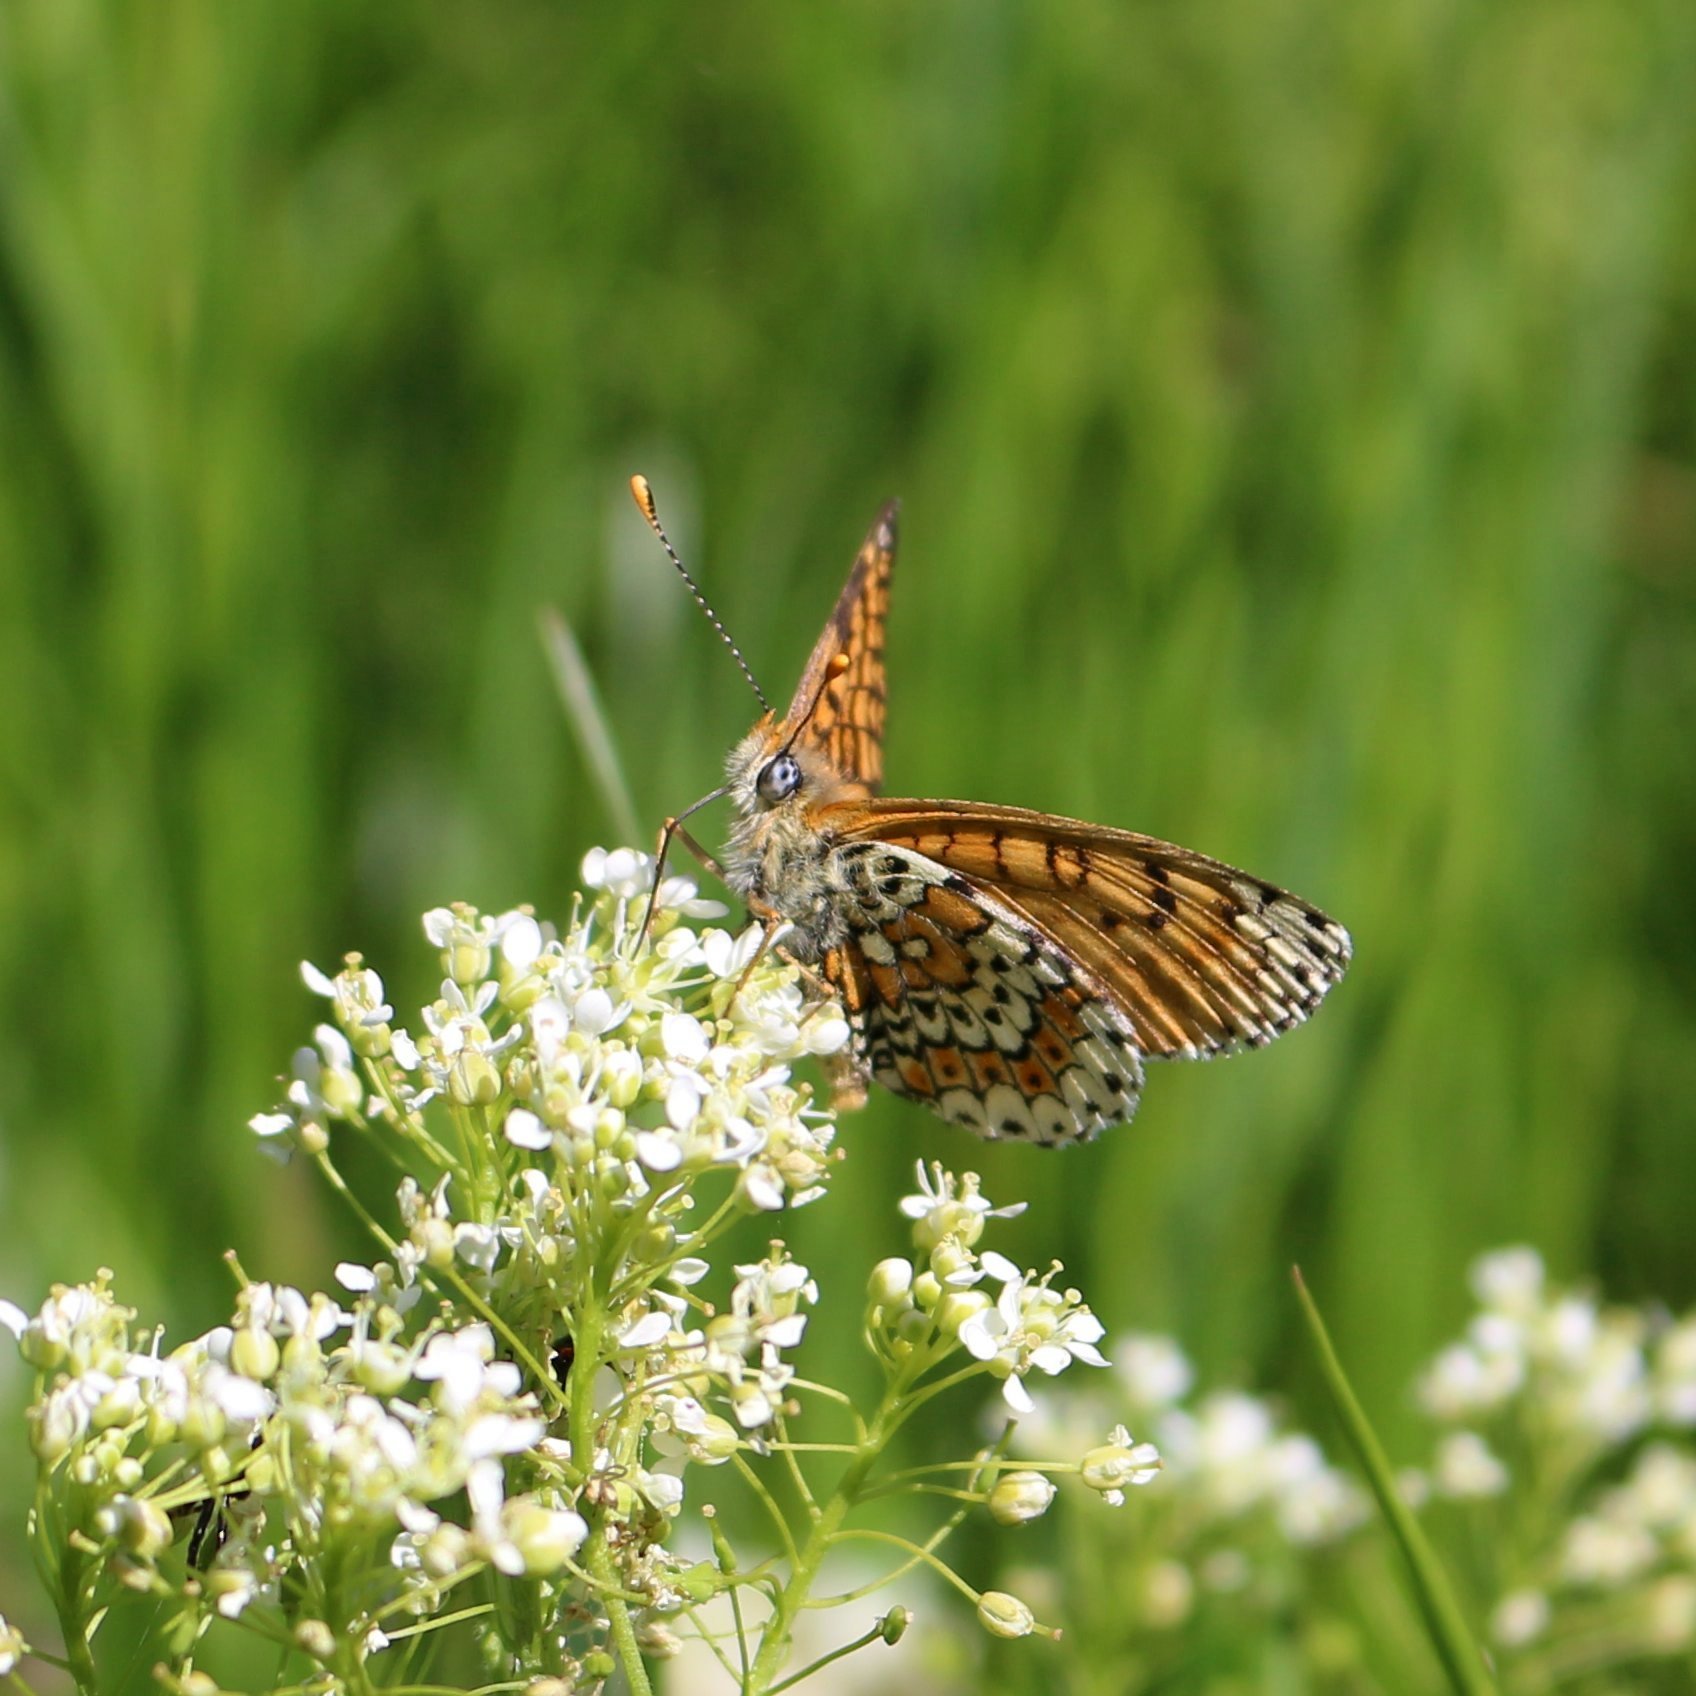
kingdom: Animalia
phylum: Arthropoda
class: Insecta
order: Lepidoptera
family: Nymphalidae
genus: Melitaea
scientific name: Melitaea cinxia
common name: Glanville fritillary
